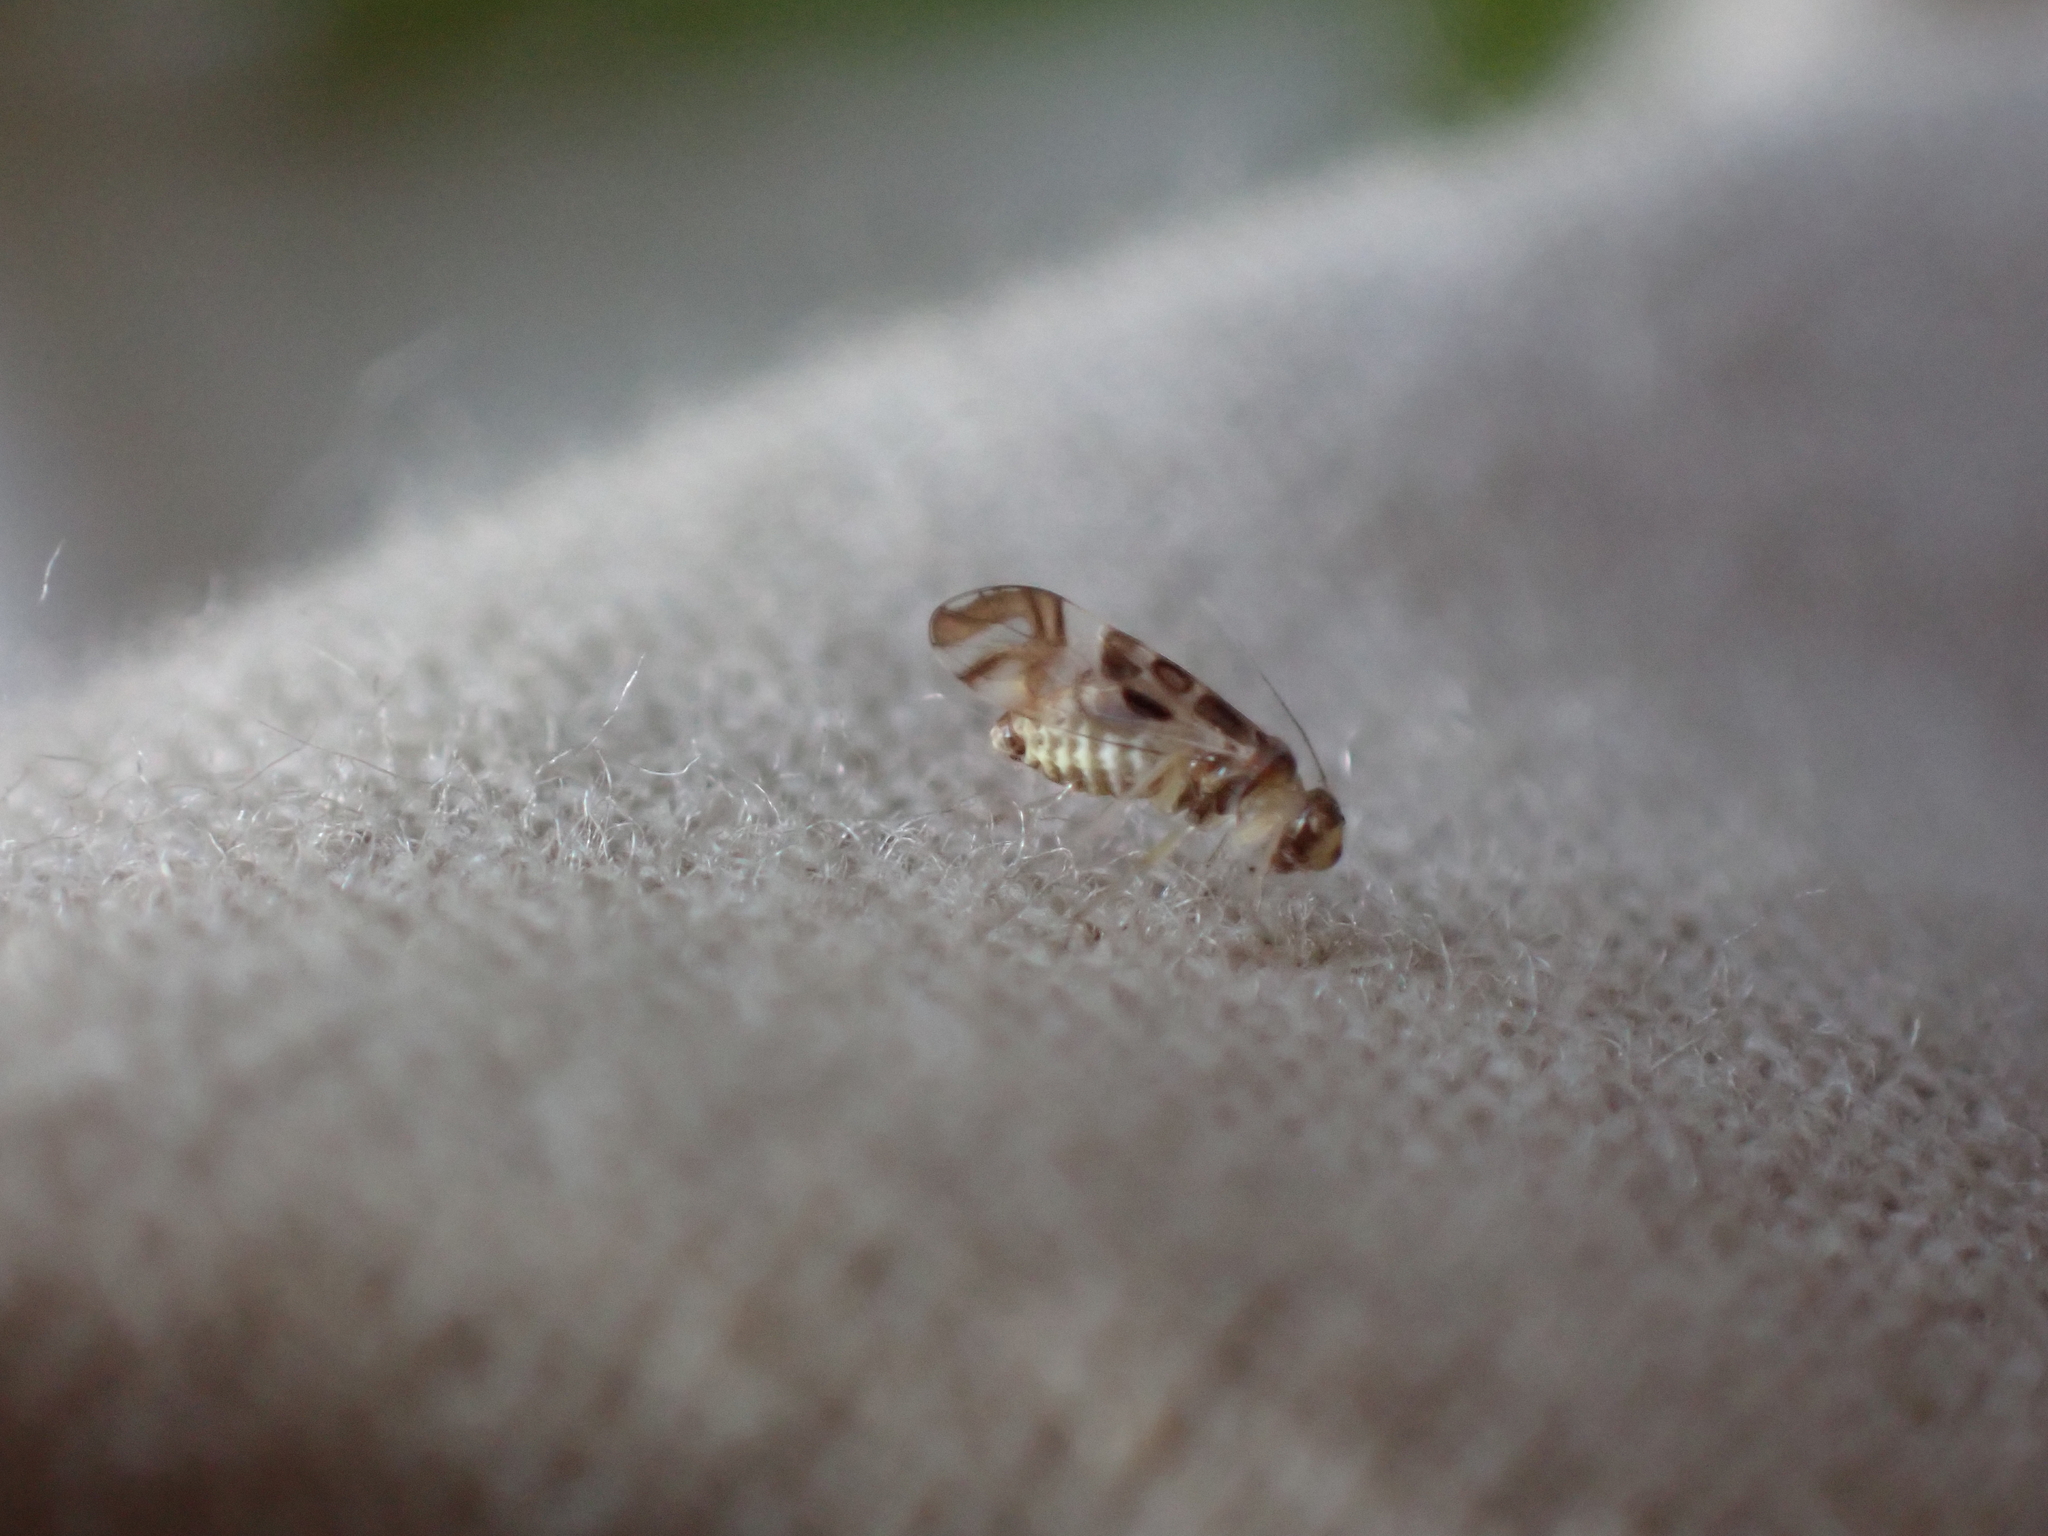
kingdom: Animalia
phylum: Arthropoda
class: Insecta
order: Psocodea
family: Stenopsocidae
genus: Graphopsocus
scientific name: Graphopsocus cruciatus
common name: Lizard bark louse
